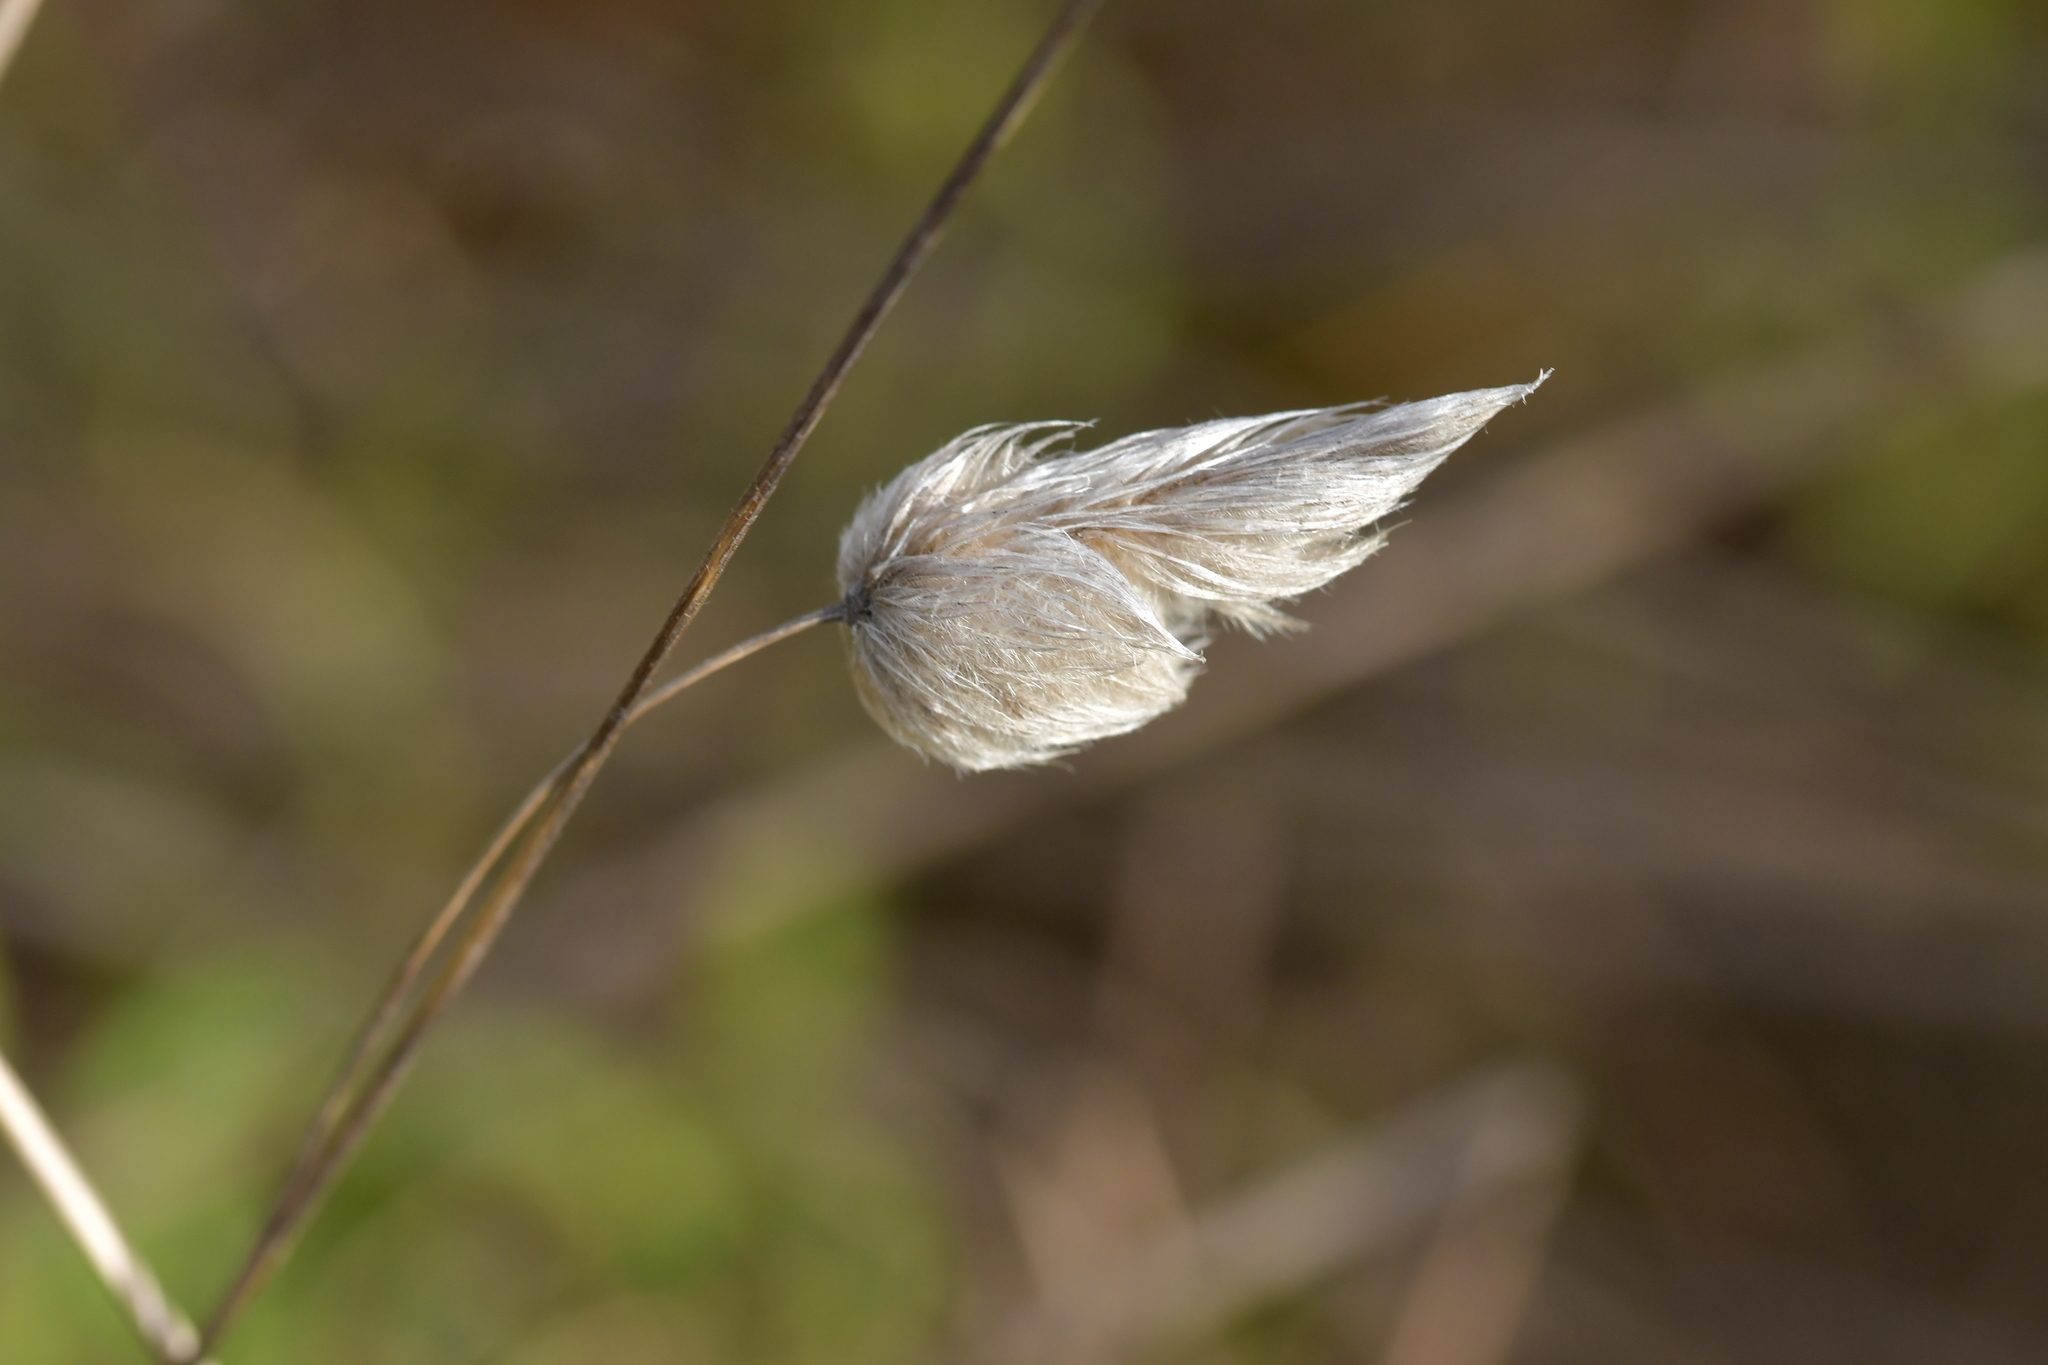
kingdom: Plantae
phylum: Tracheophyta
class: Liliopsida
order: Poales
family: Poaceae
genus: Lagurus
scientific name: Lagurus ovatus
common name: Hare's-tail
